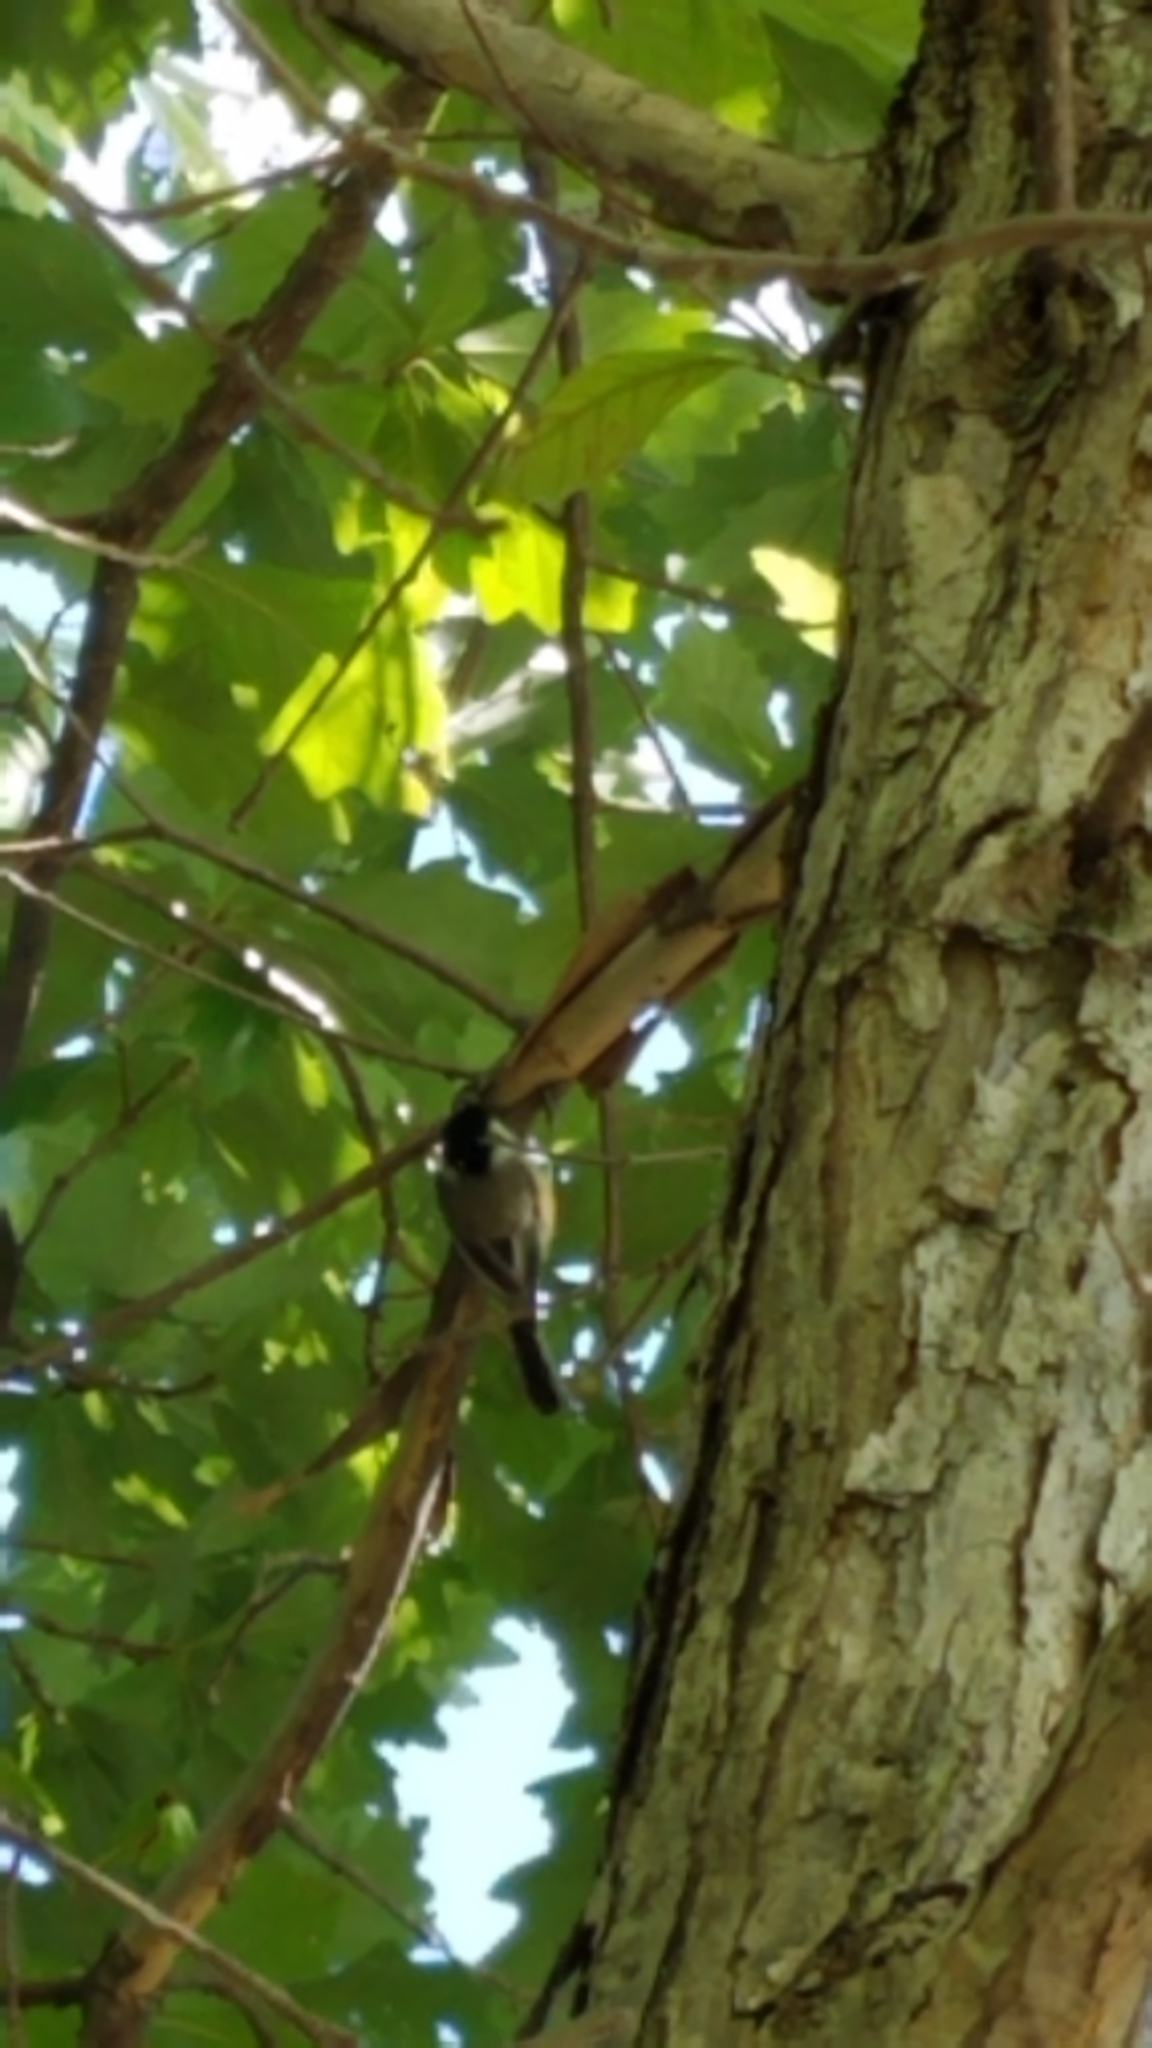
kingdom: Animalia
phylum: Chordata
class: Aves
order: Passeriformes
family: Paridae
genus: Poecile
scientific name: Poecile atricapillus
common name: Black-capped chickadee
